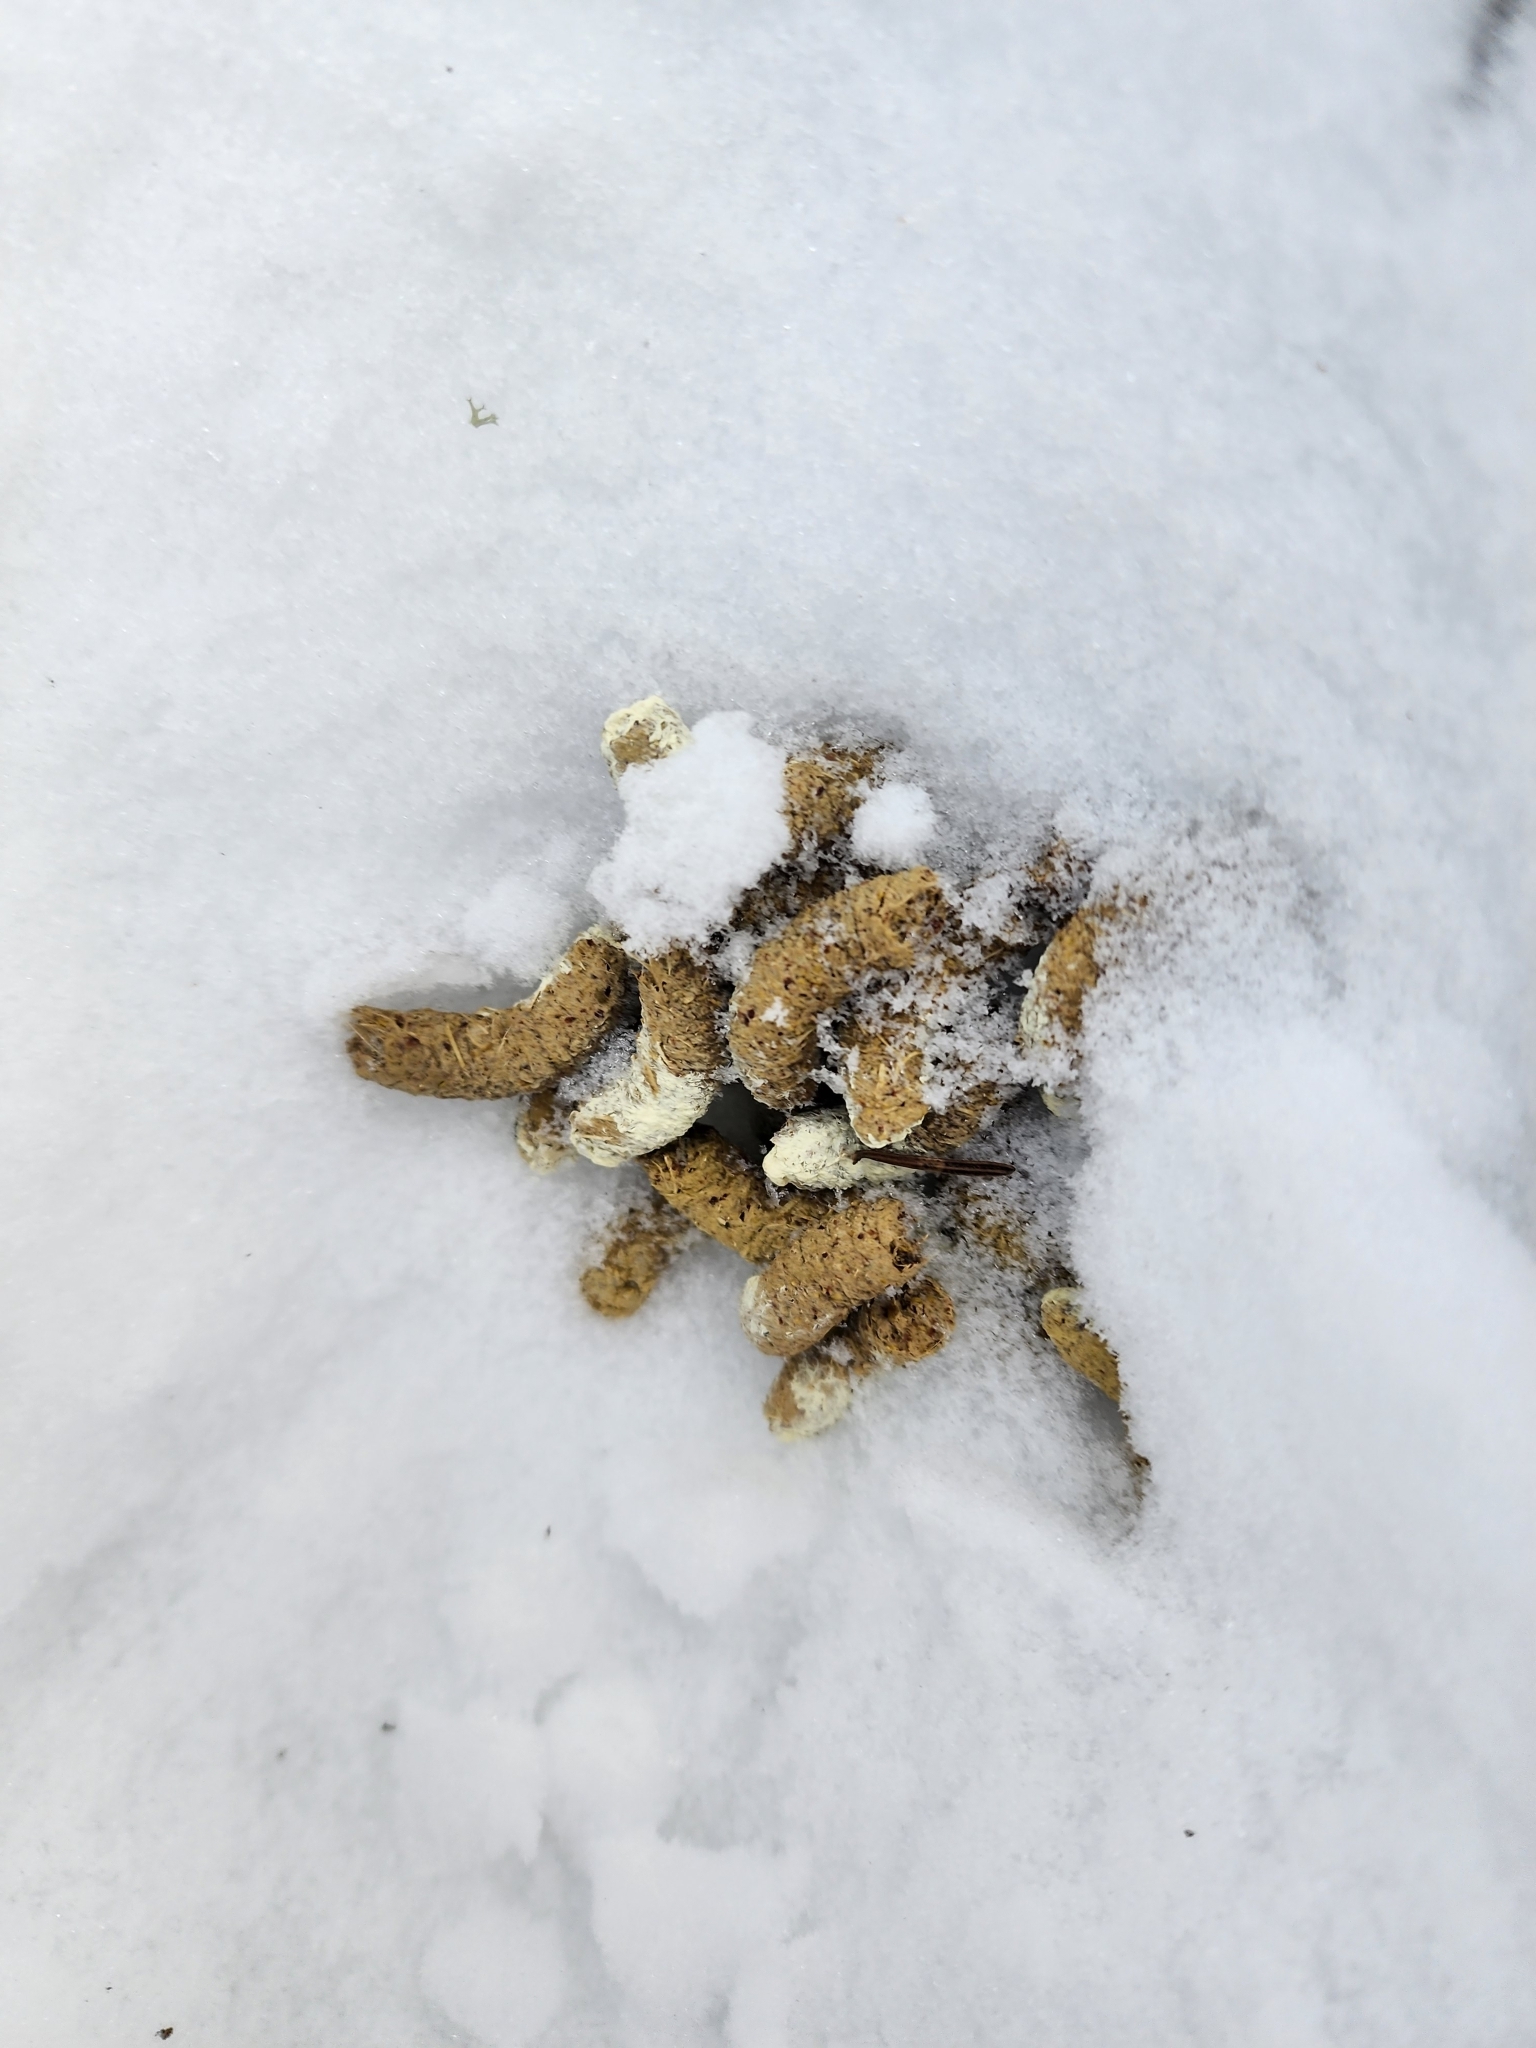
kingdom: Animalia
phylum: Chordata
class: Aves
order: Galliformes
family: Phasianidae
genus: Bonasa
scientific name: Bonasa umbellus
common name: Ruffed grouse
